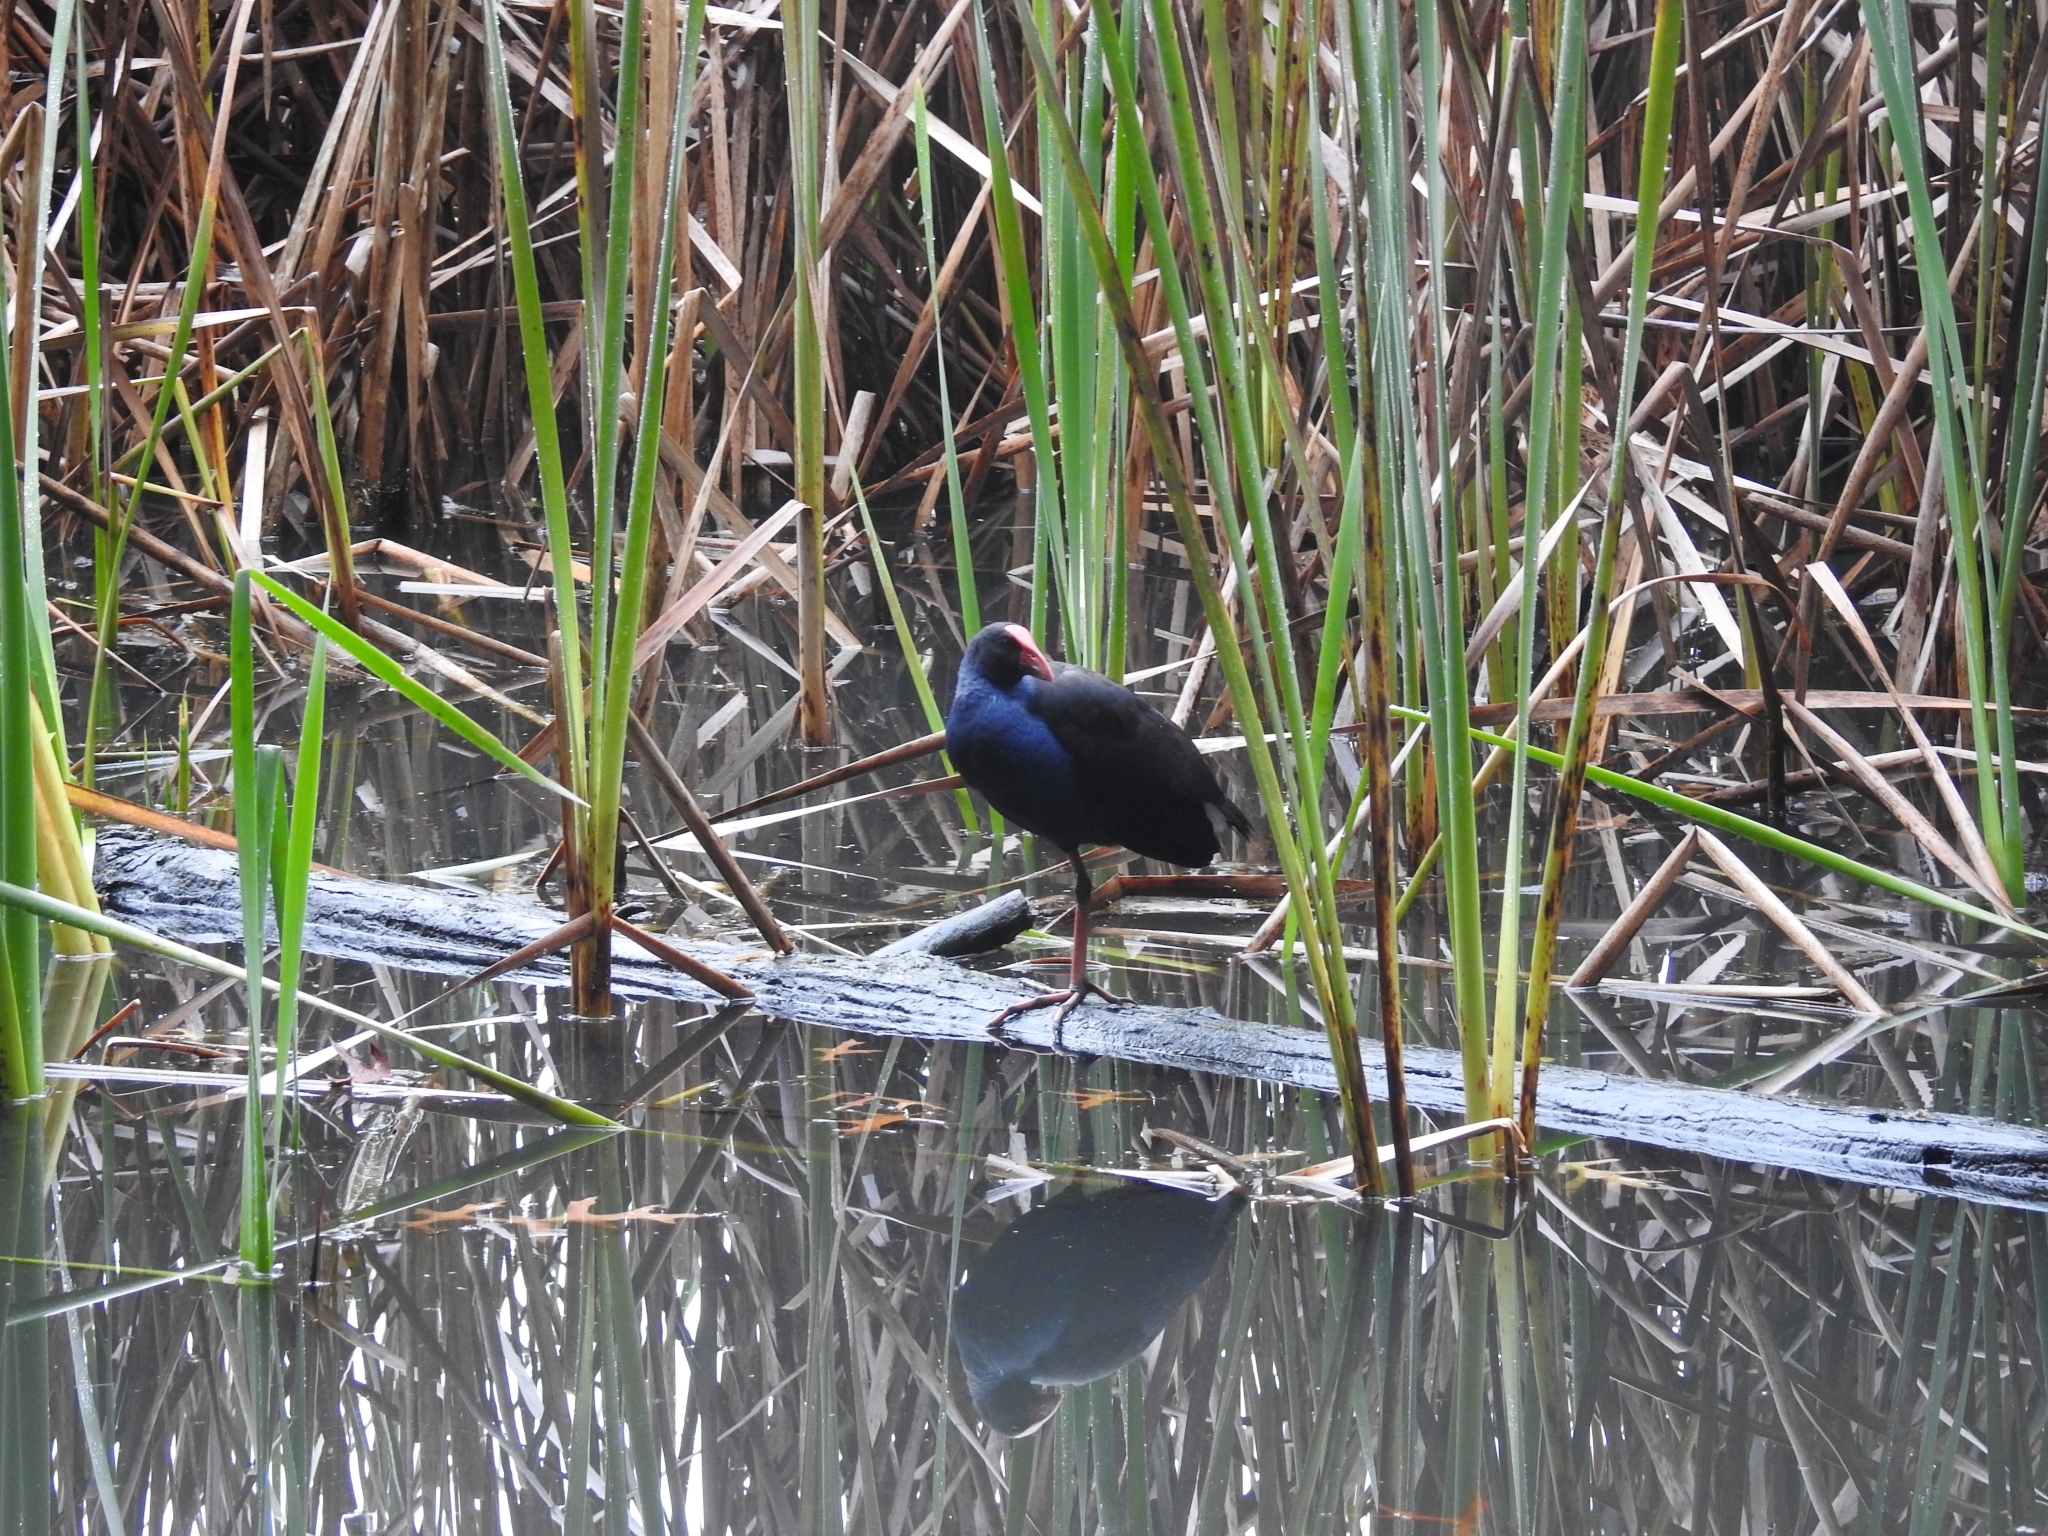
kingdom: Animalia
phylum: Chordata
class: Aves
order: Gruiformes
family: Rallidae
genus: Porphyrio
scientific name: Porphyrio melanotus
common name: Australasian swamphen
